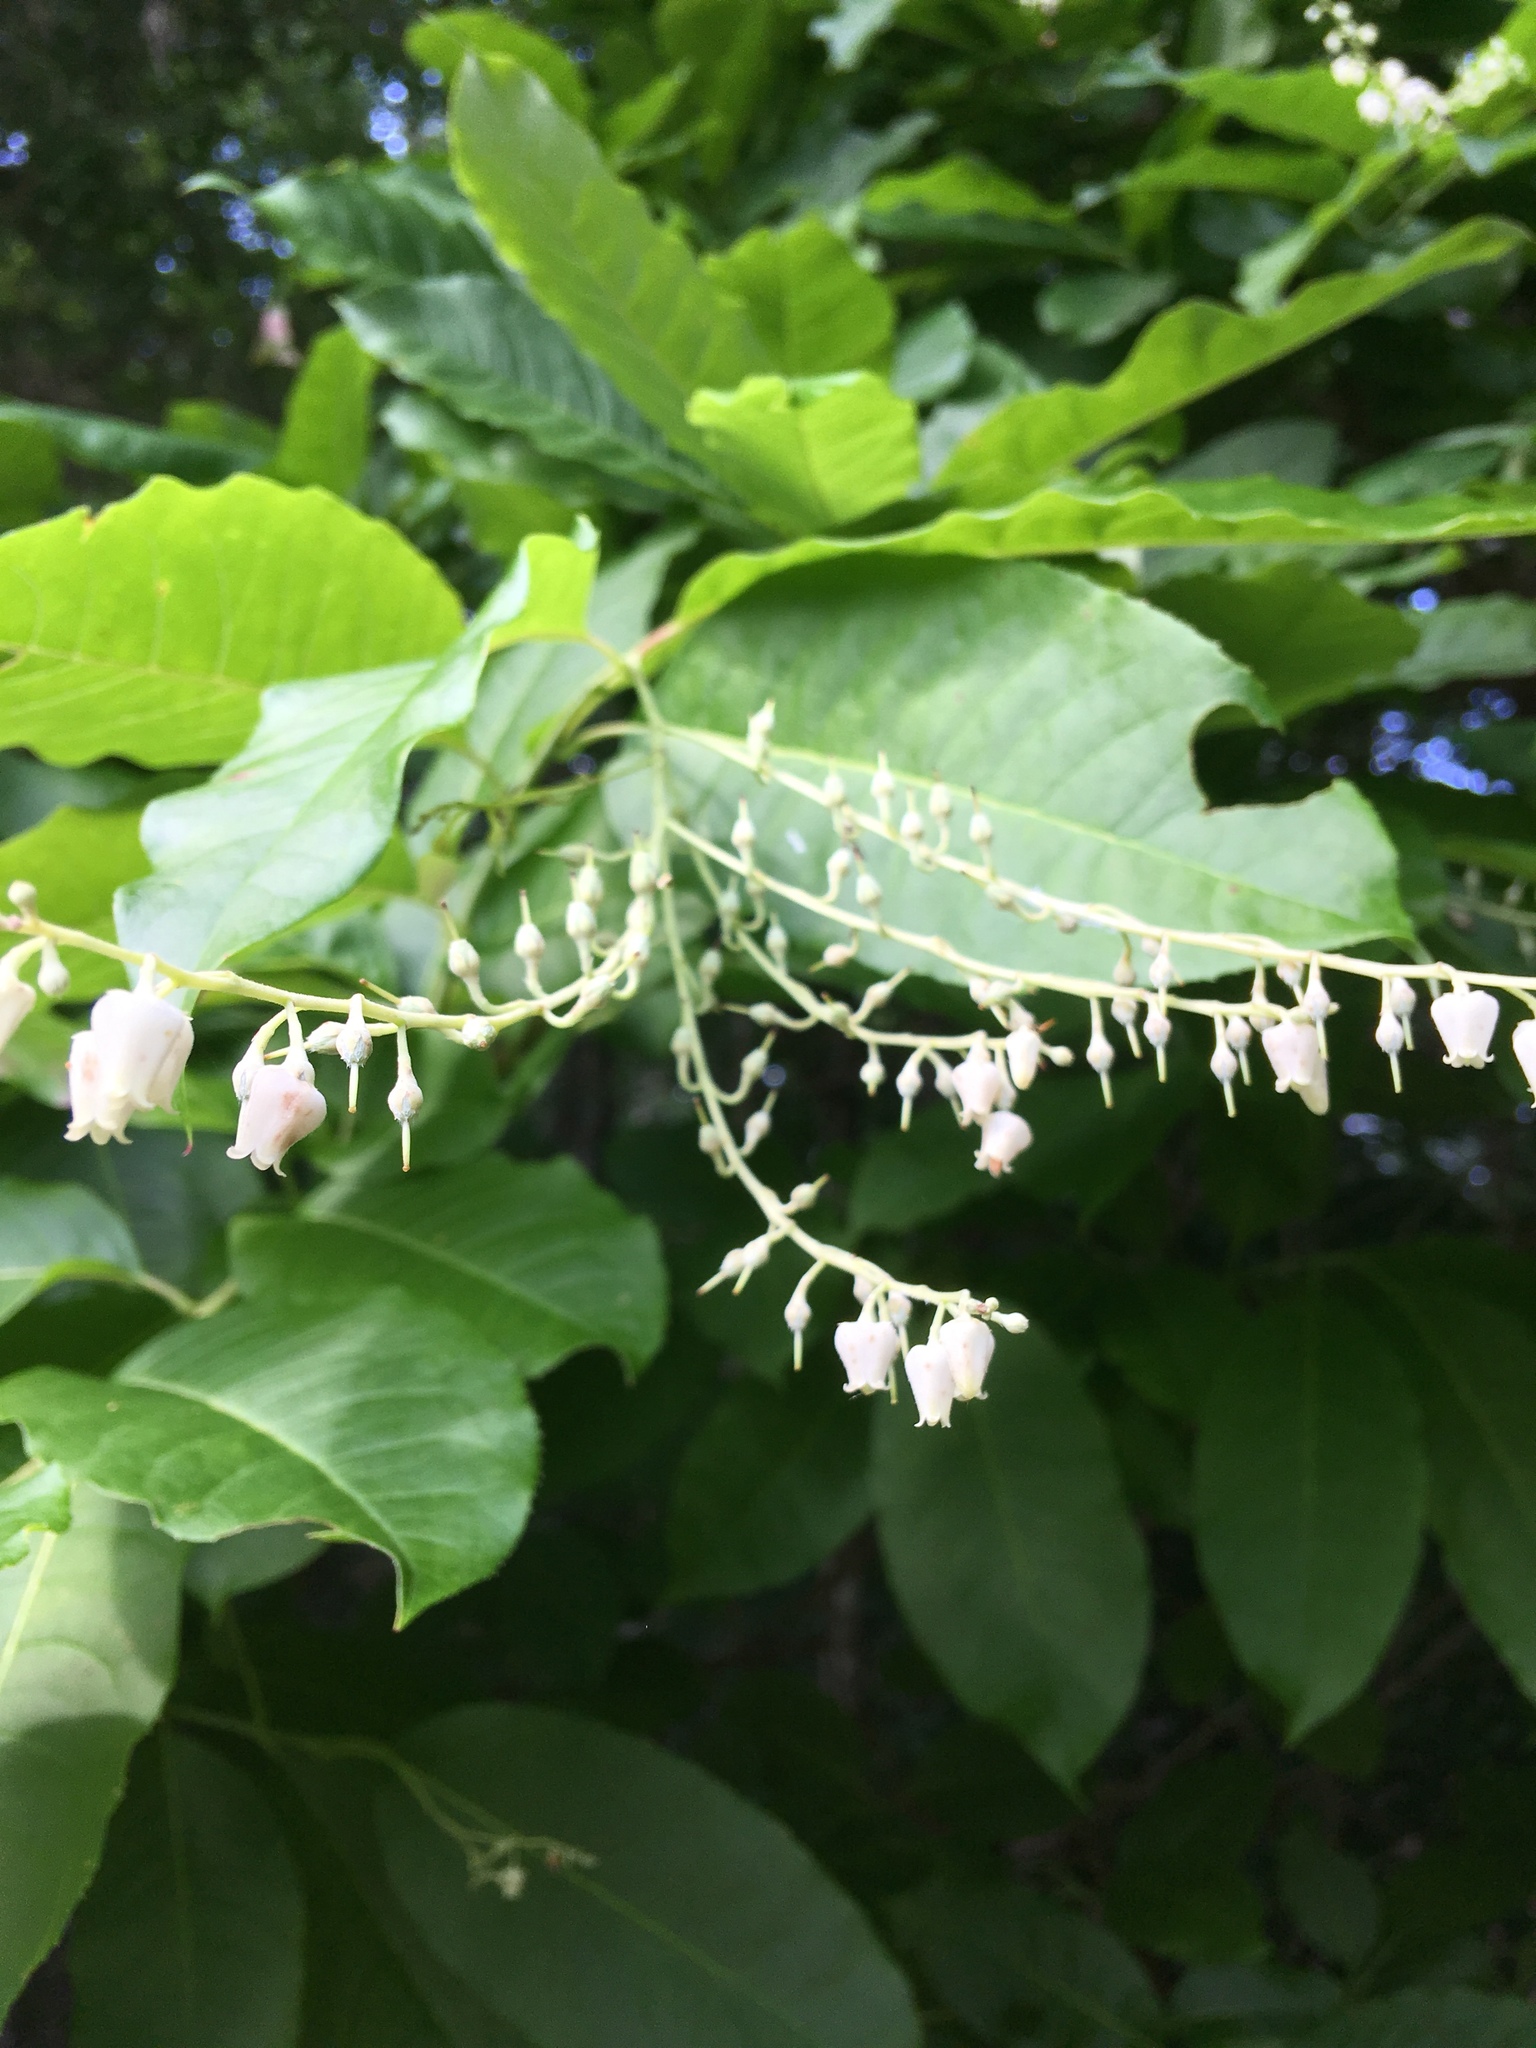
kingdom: Plantae
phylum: Tracheophyta
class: Magnoliopsida
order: Ericales
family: Ericaceae
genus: Oxydendrum
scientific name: Oxydendrum arboreum
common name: Sourwood
